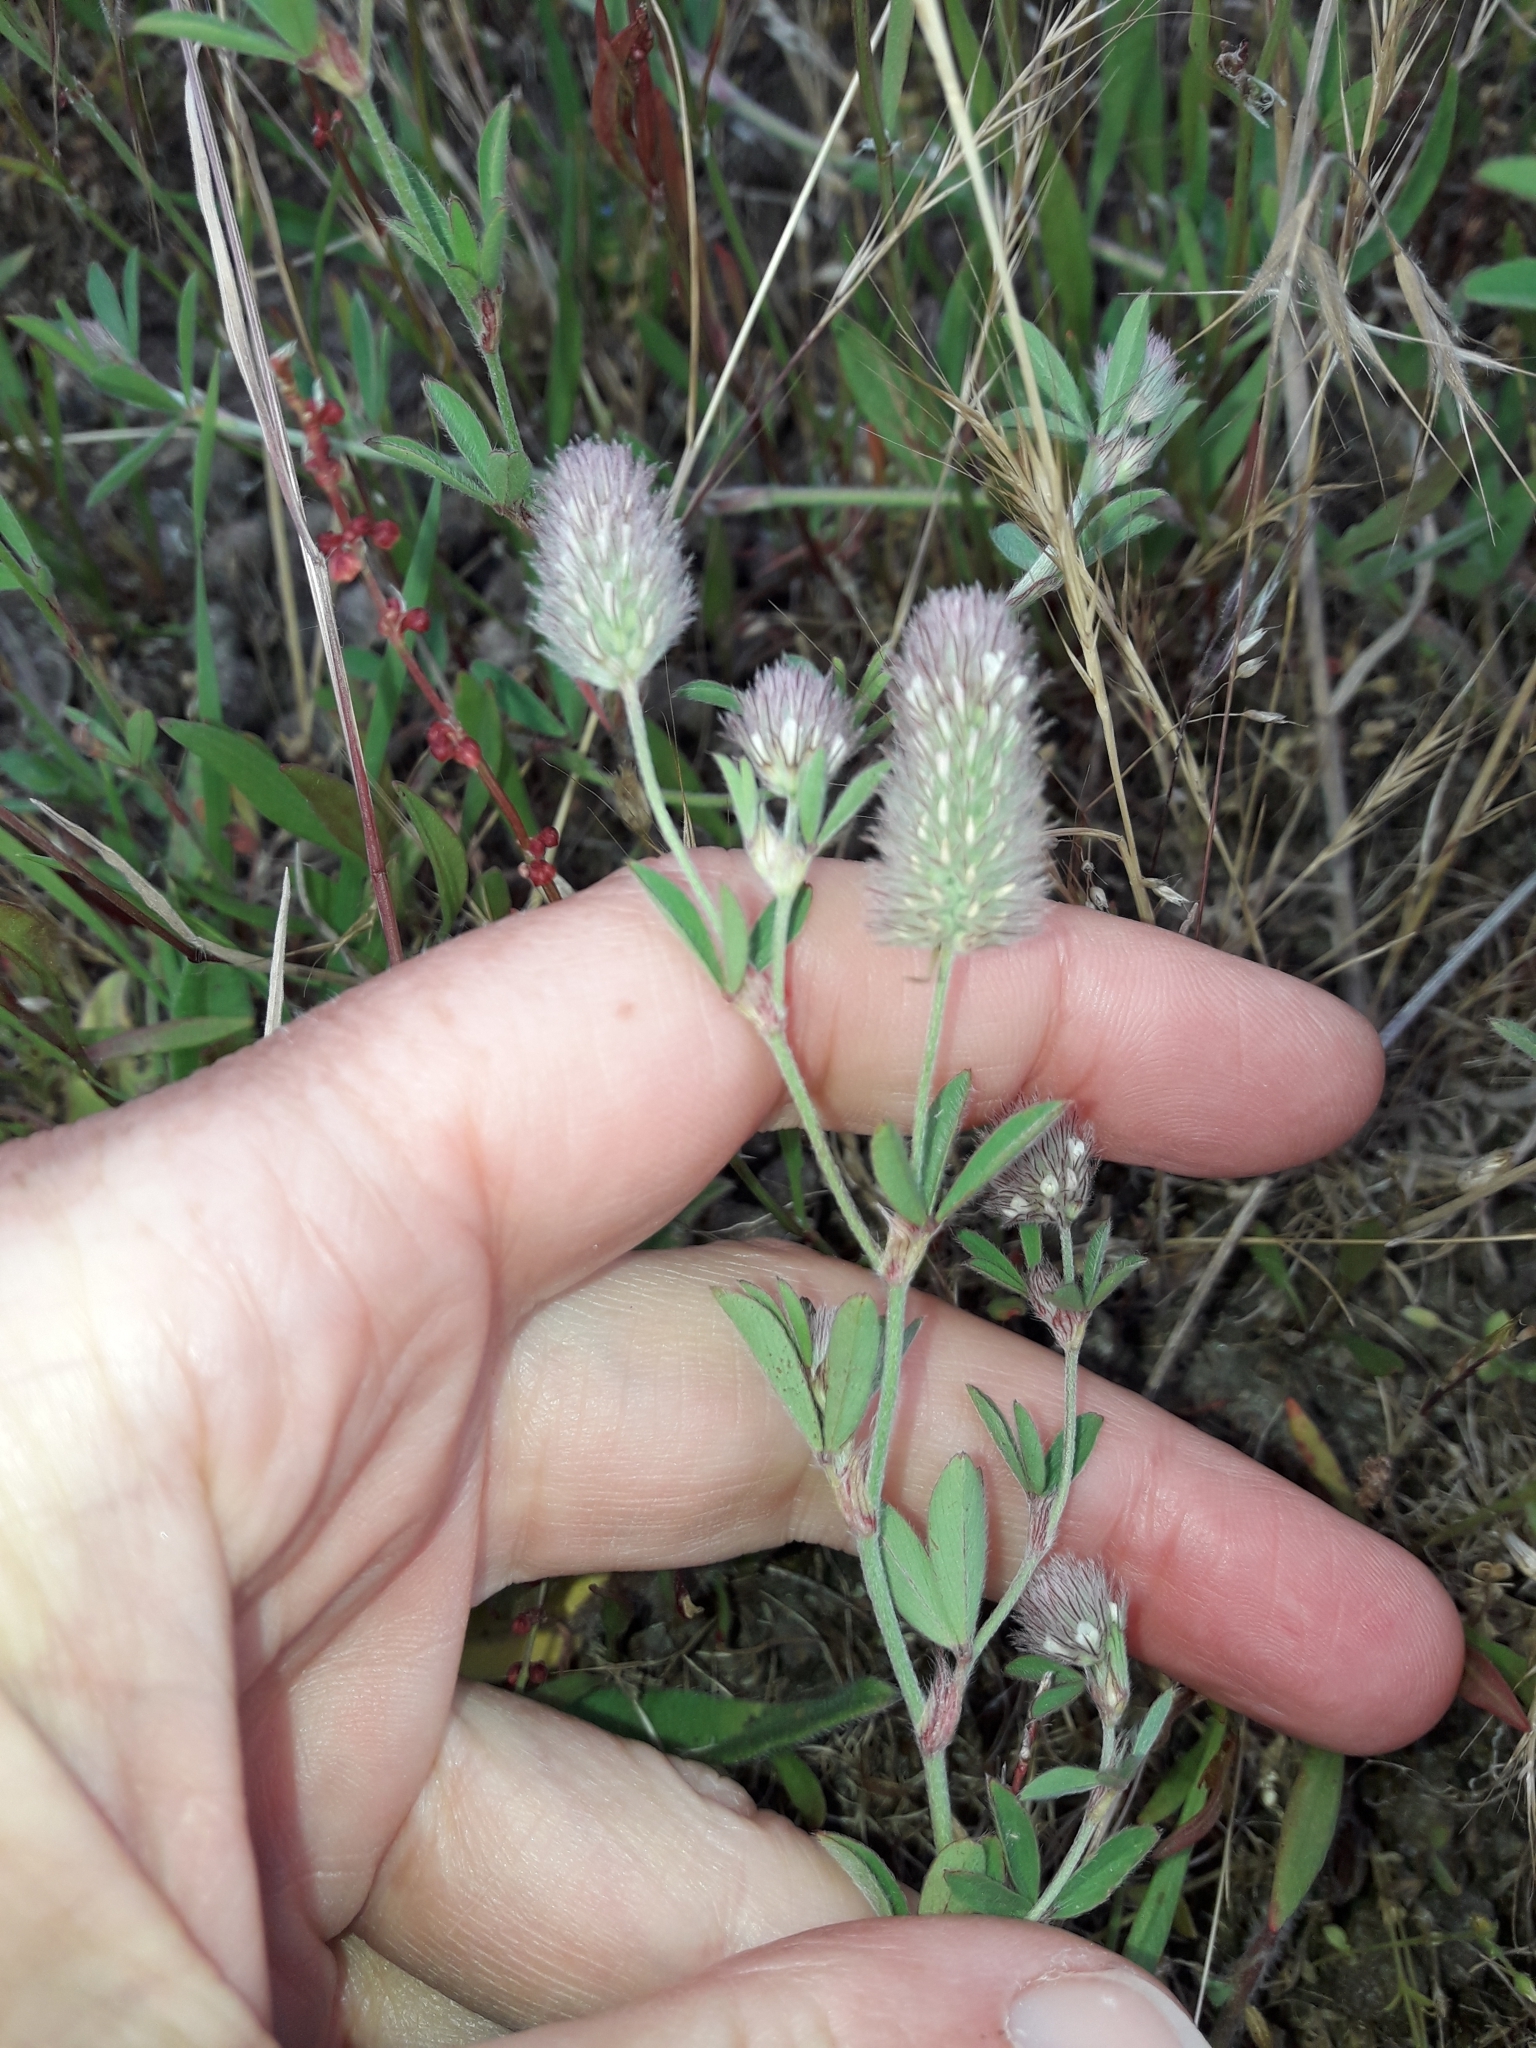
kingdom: Plantae
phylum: Tracheophyta
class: Magnoliopsida
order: Fabales
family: Fabaceae
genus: Trifolium
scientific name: Trifolium arvense
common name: Hare's-foot clover
